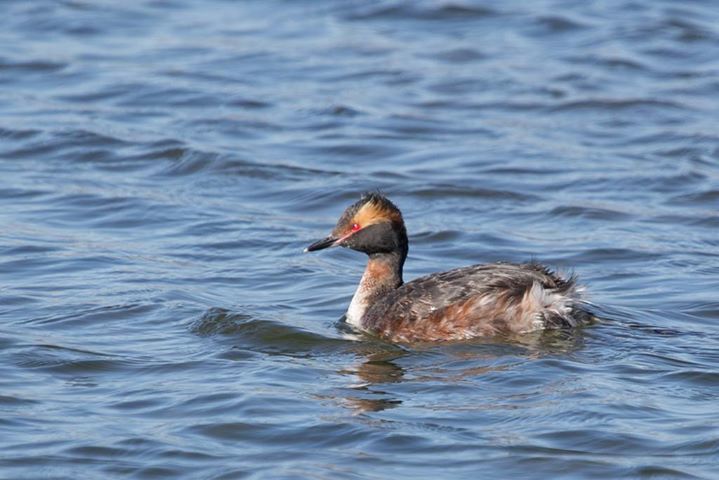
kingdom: Animalia
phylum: Chordata
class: Aves
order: Podicipediformes
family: Podicipedidae
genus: Podiceps
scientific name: Podiceps auritus
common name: Horned grebe
